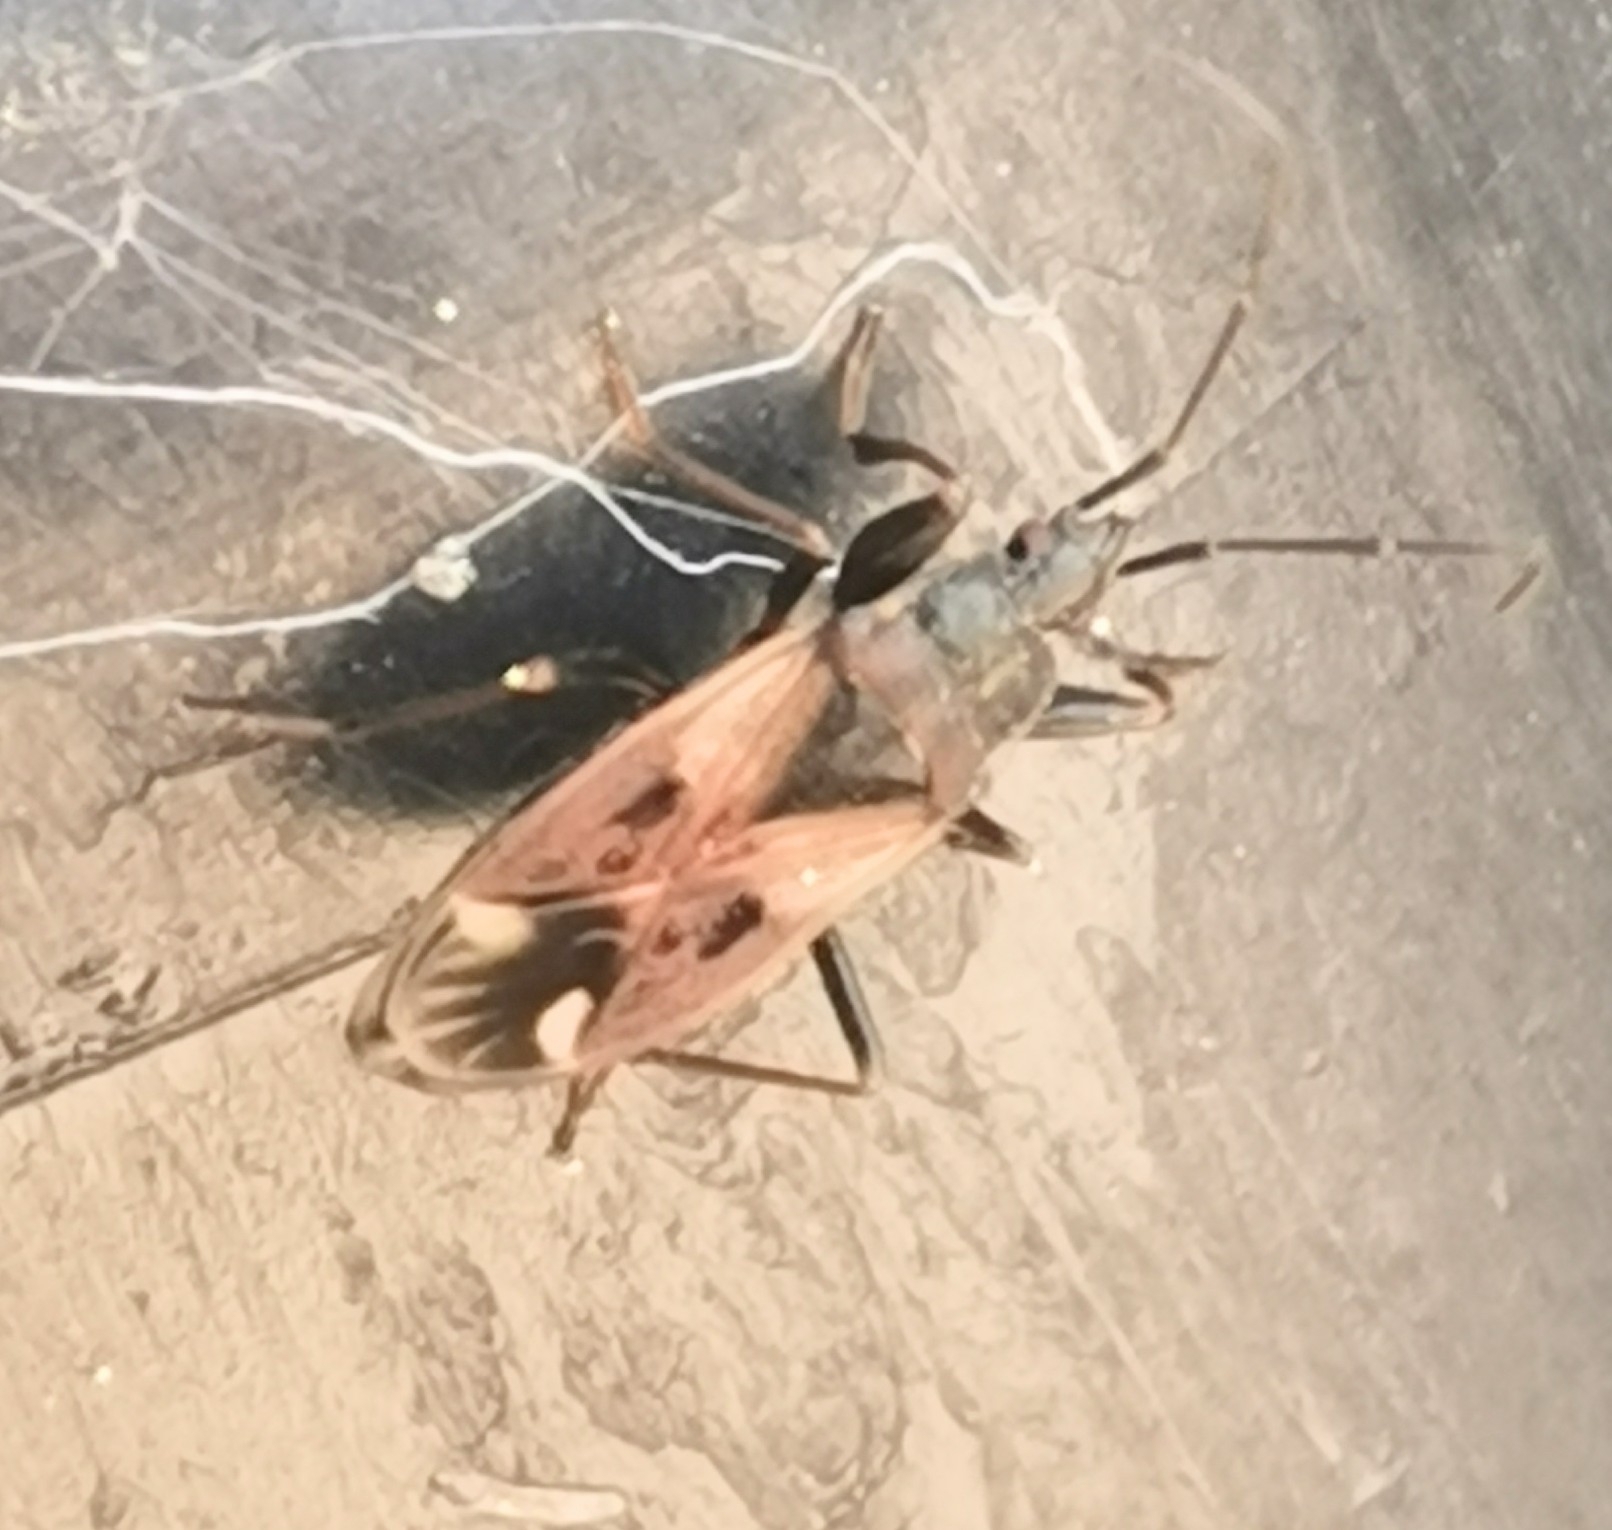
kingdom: Animalia
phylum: Arthropoda
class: Insecta
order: Hemiptera
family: Rhyparochromidae
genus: Eremocoris
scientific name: Eremocoris abietis
